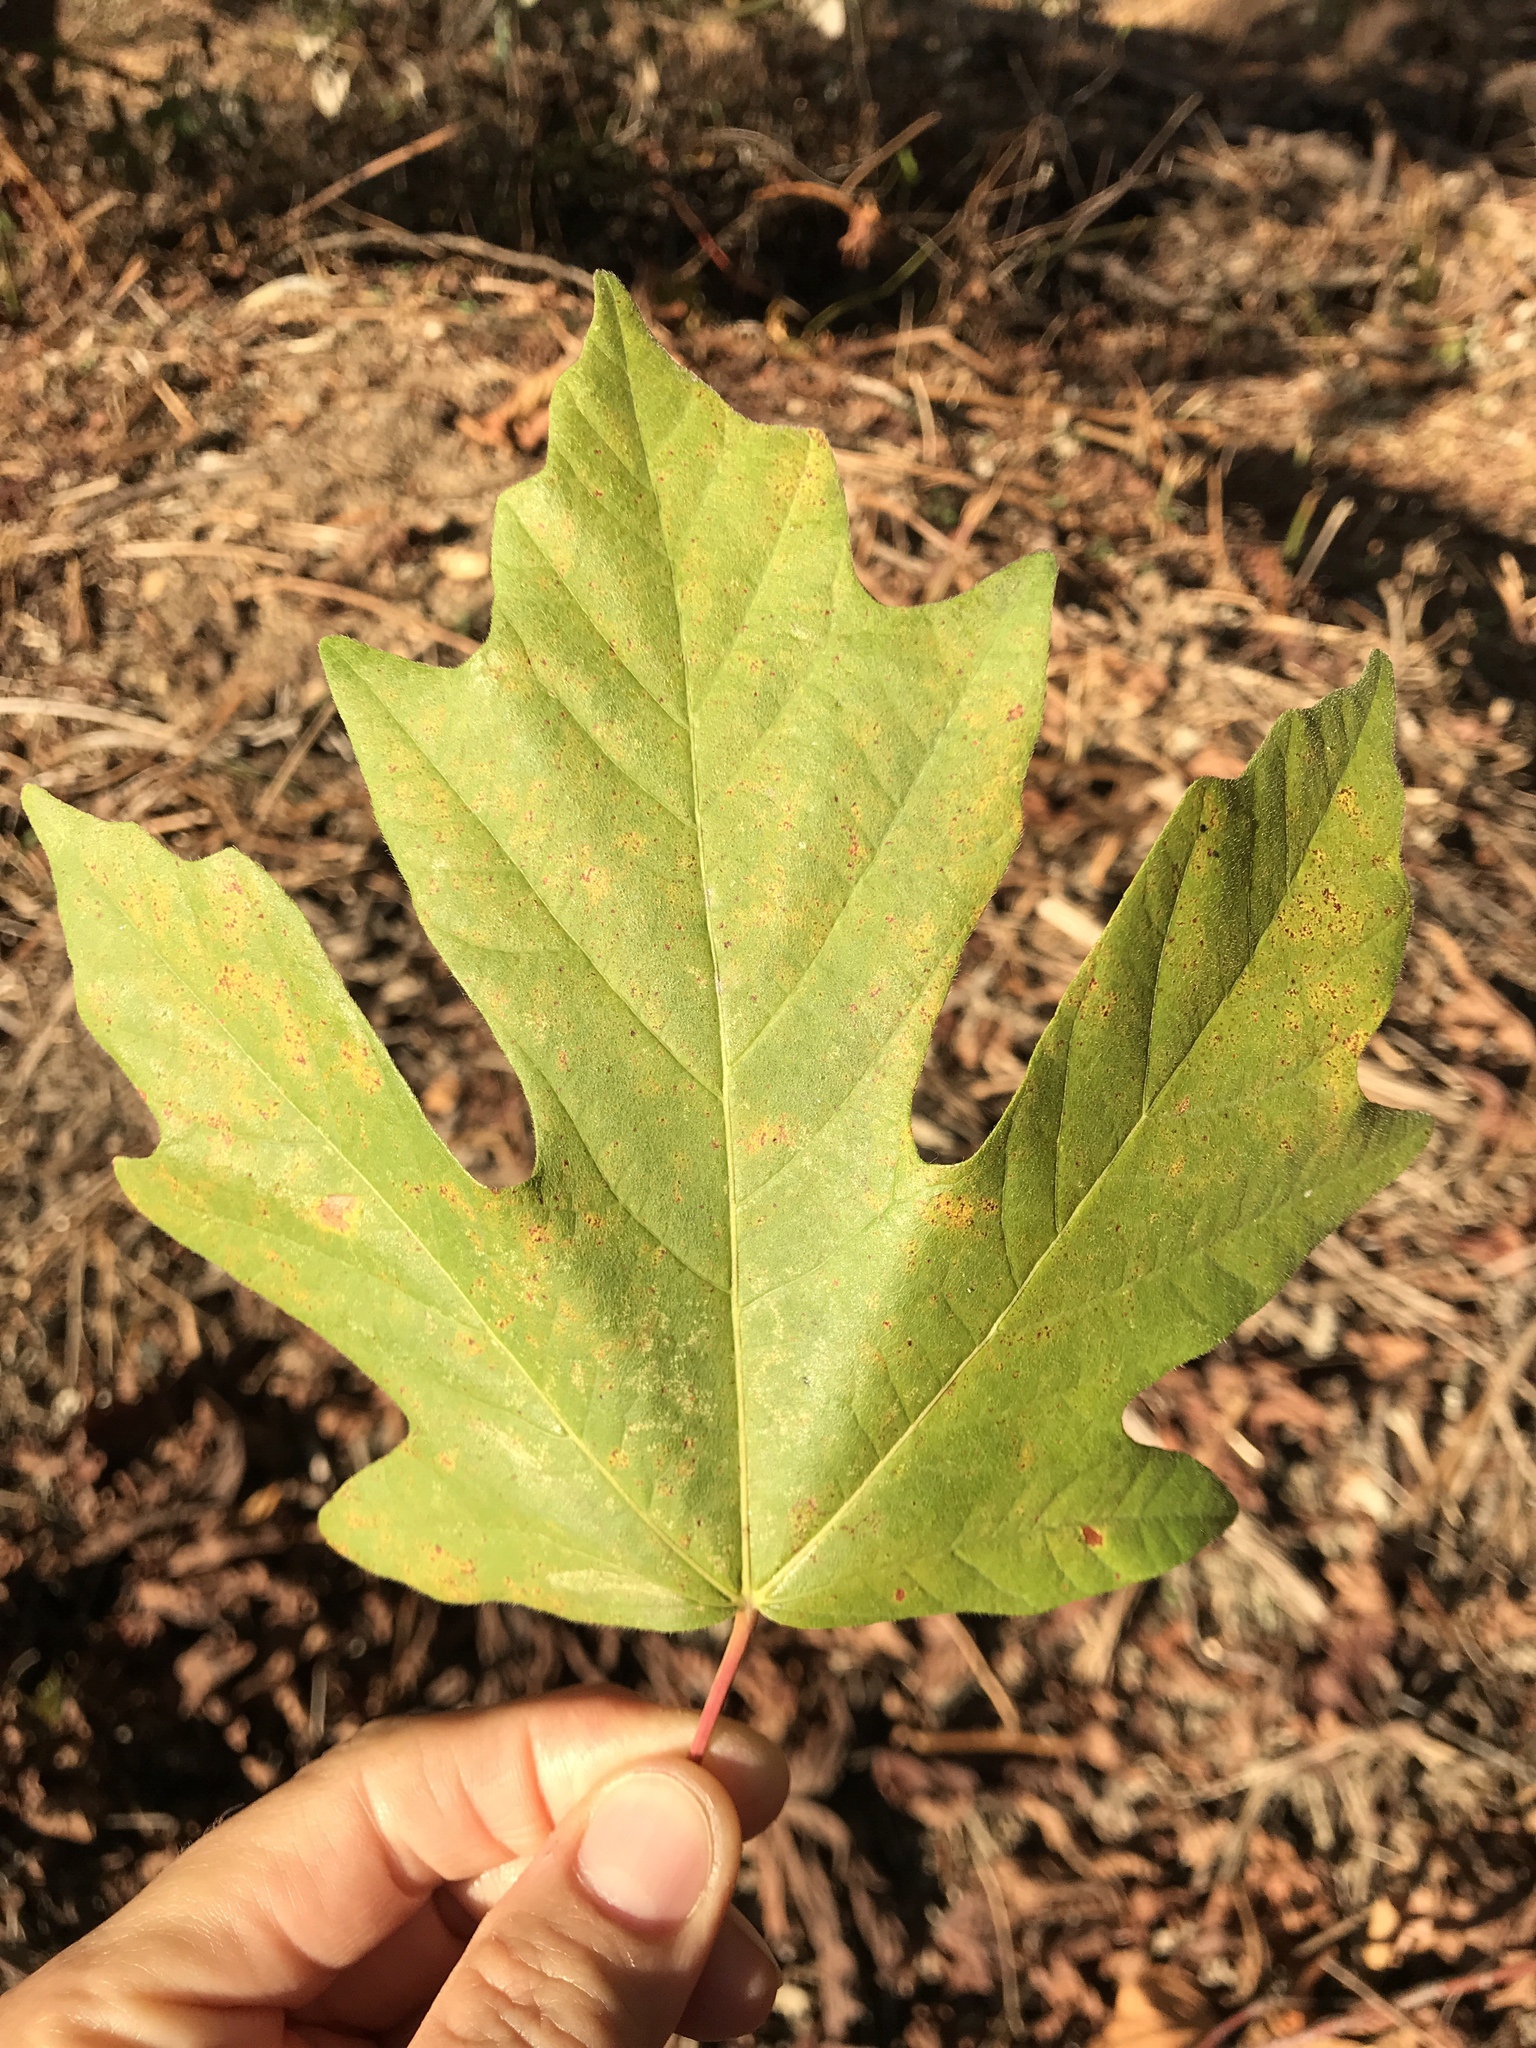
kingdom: Plantae
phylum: Tracheophyta
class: Magnoliopsida
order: Sapindales
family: Sapindaceae
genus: Acer
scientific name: Acer macrophyllum
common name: Oregon maple
